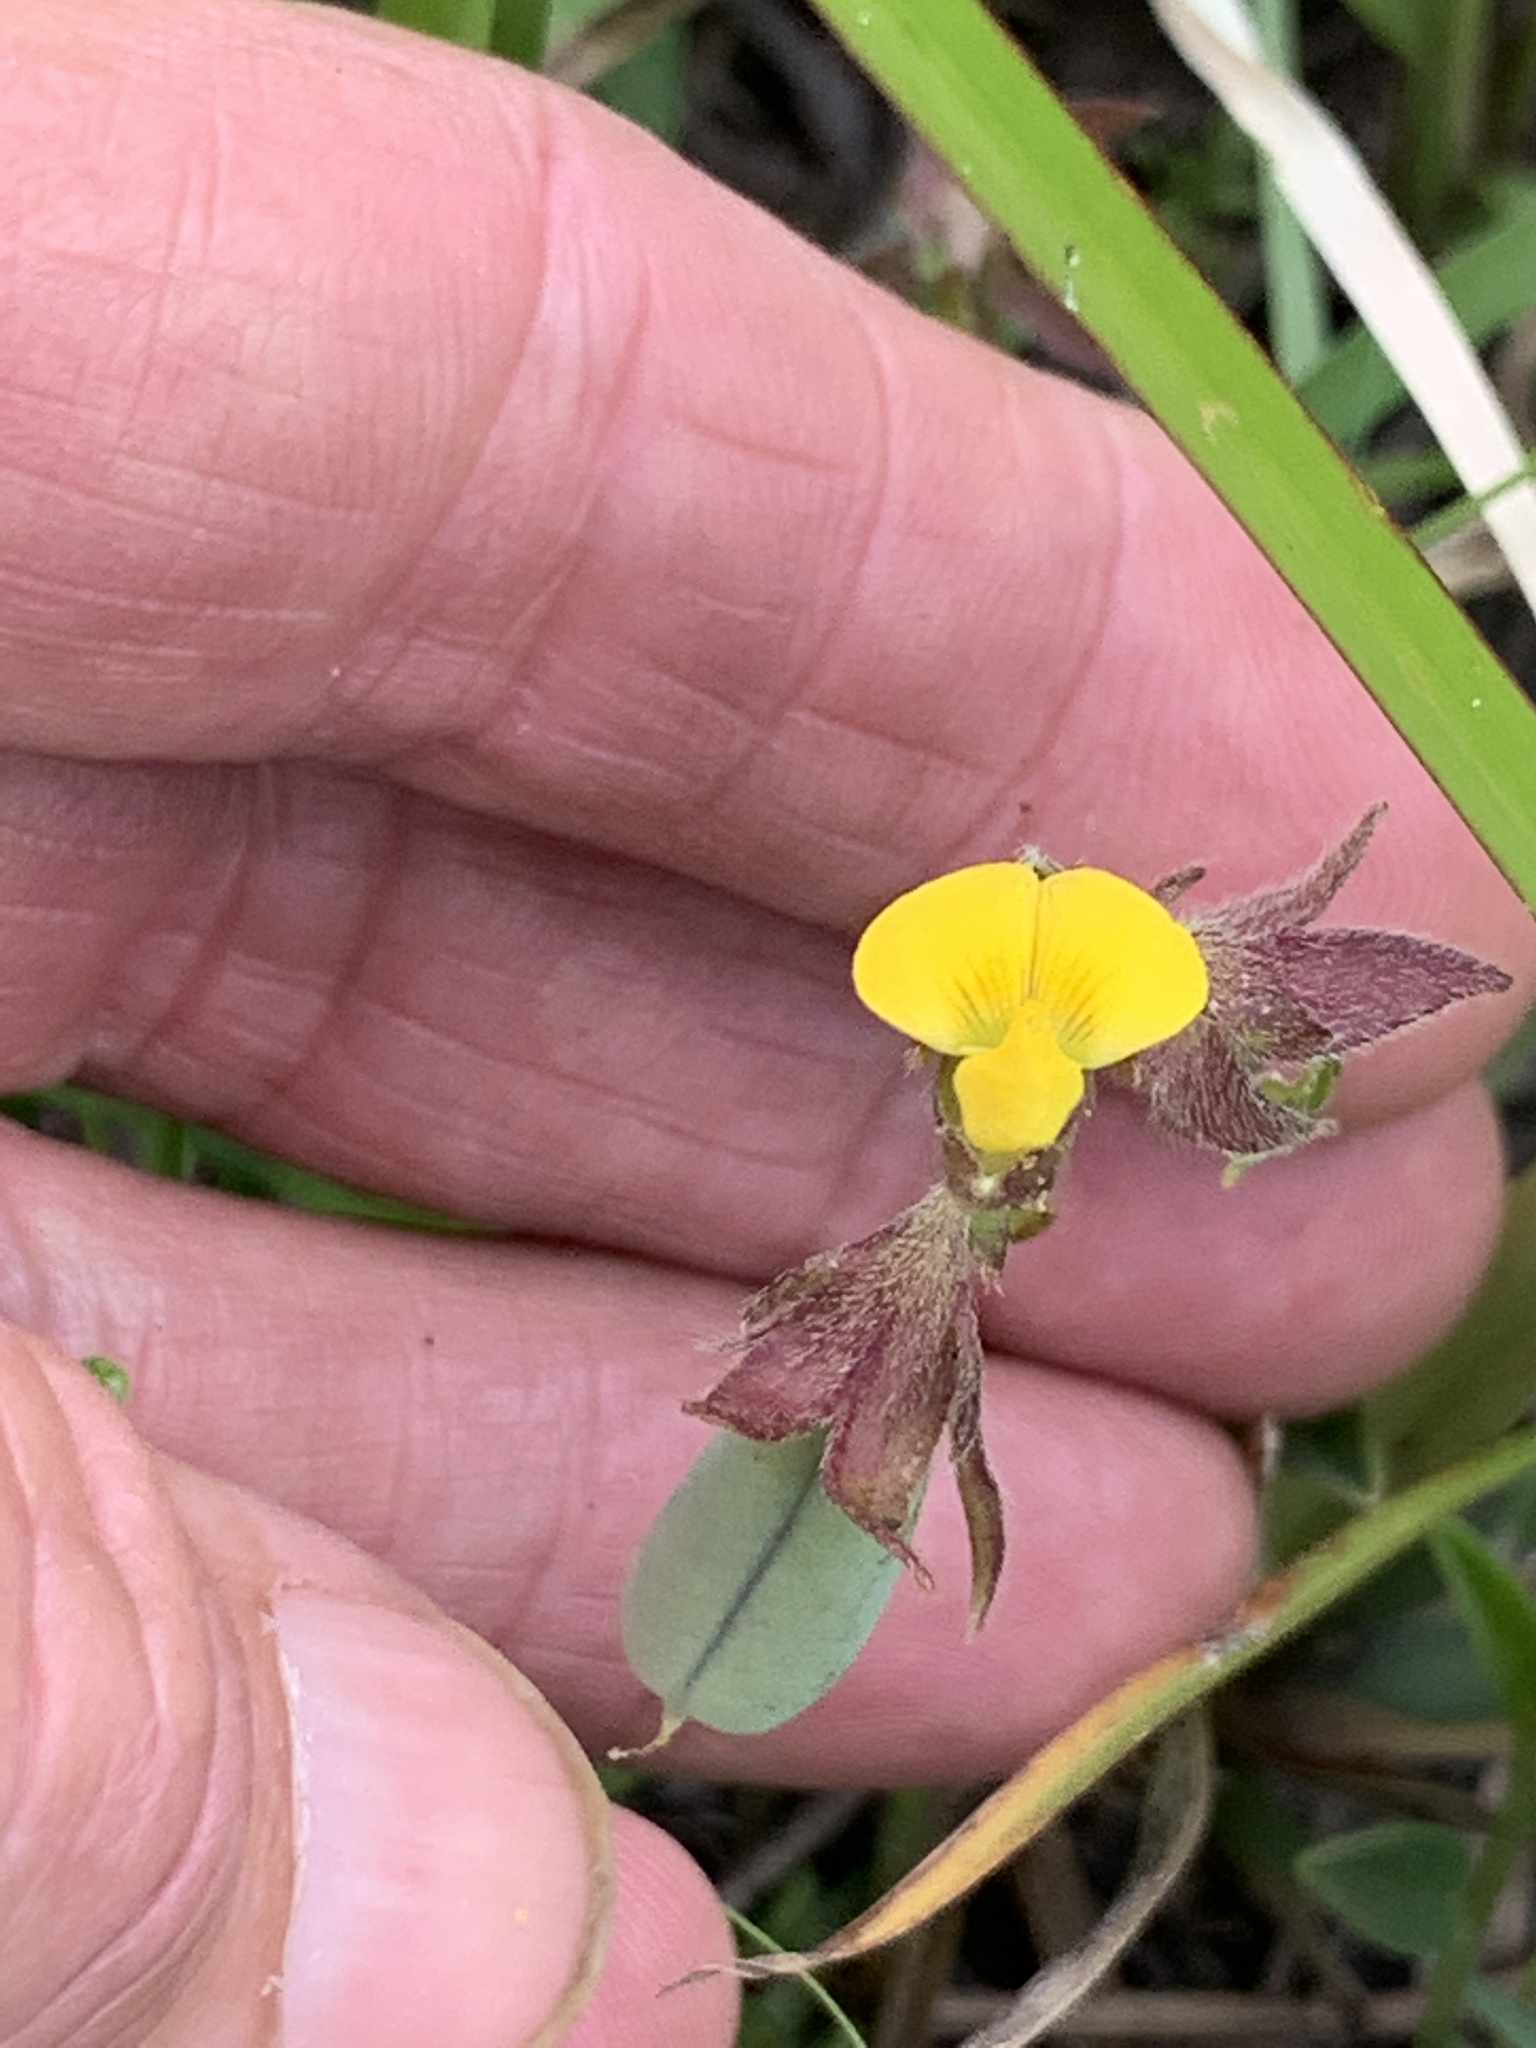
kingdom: Plantae
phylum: Tracheophyta
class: Magnoliopsida
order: Fabales
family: Fabaceae
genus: Crotalaria
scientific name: Crotalaria rotundifolia
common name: Prostrate rattlebox
